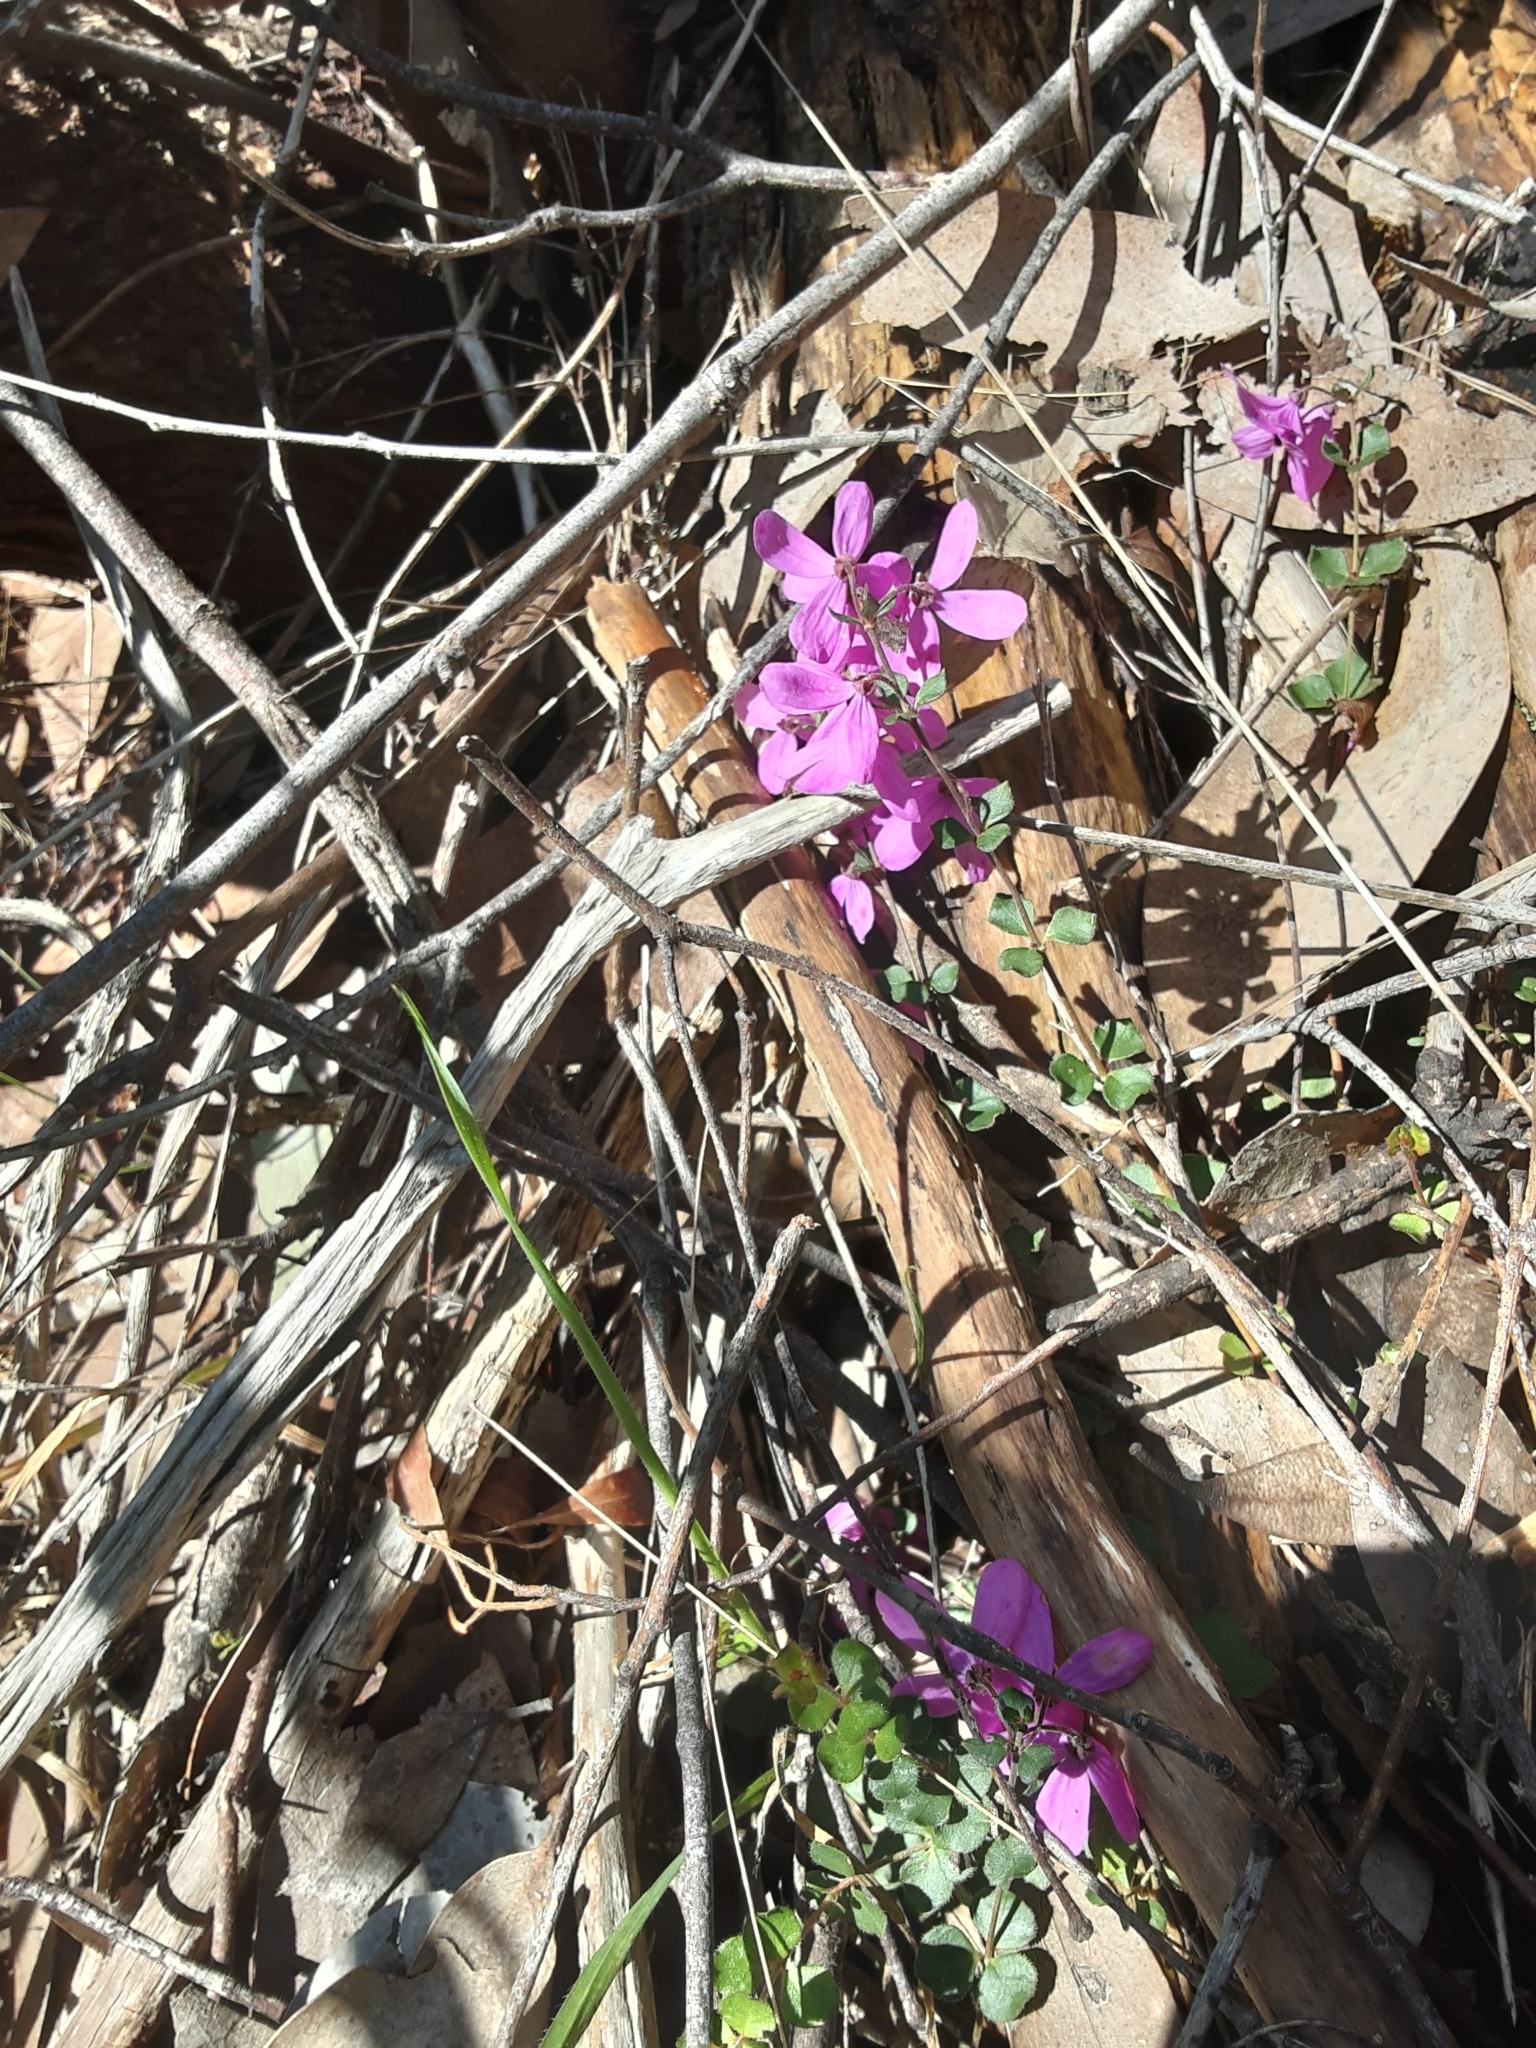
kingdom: Plantae
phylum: Tracheophyta
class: Magnoliopsida
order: Oxalidales
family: Elaeocarpaceae
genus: Tetratheca
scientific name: Tetratheca ciliata
